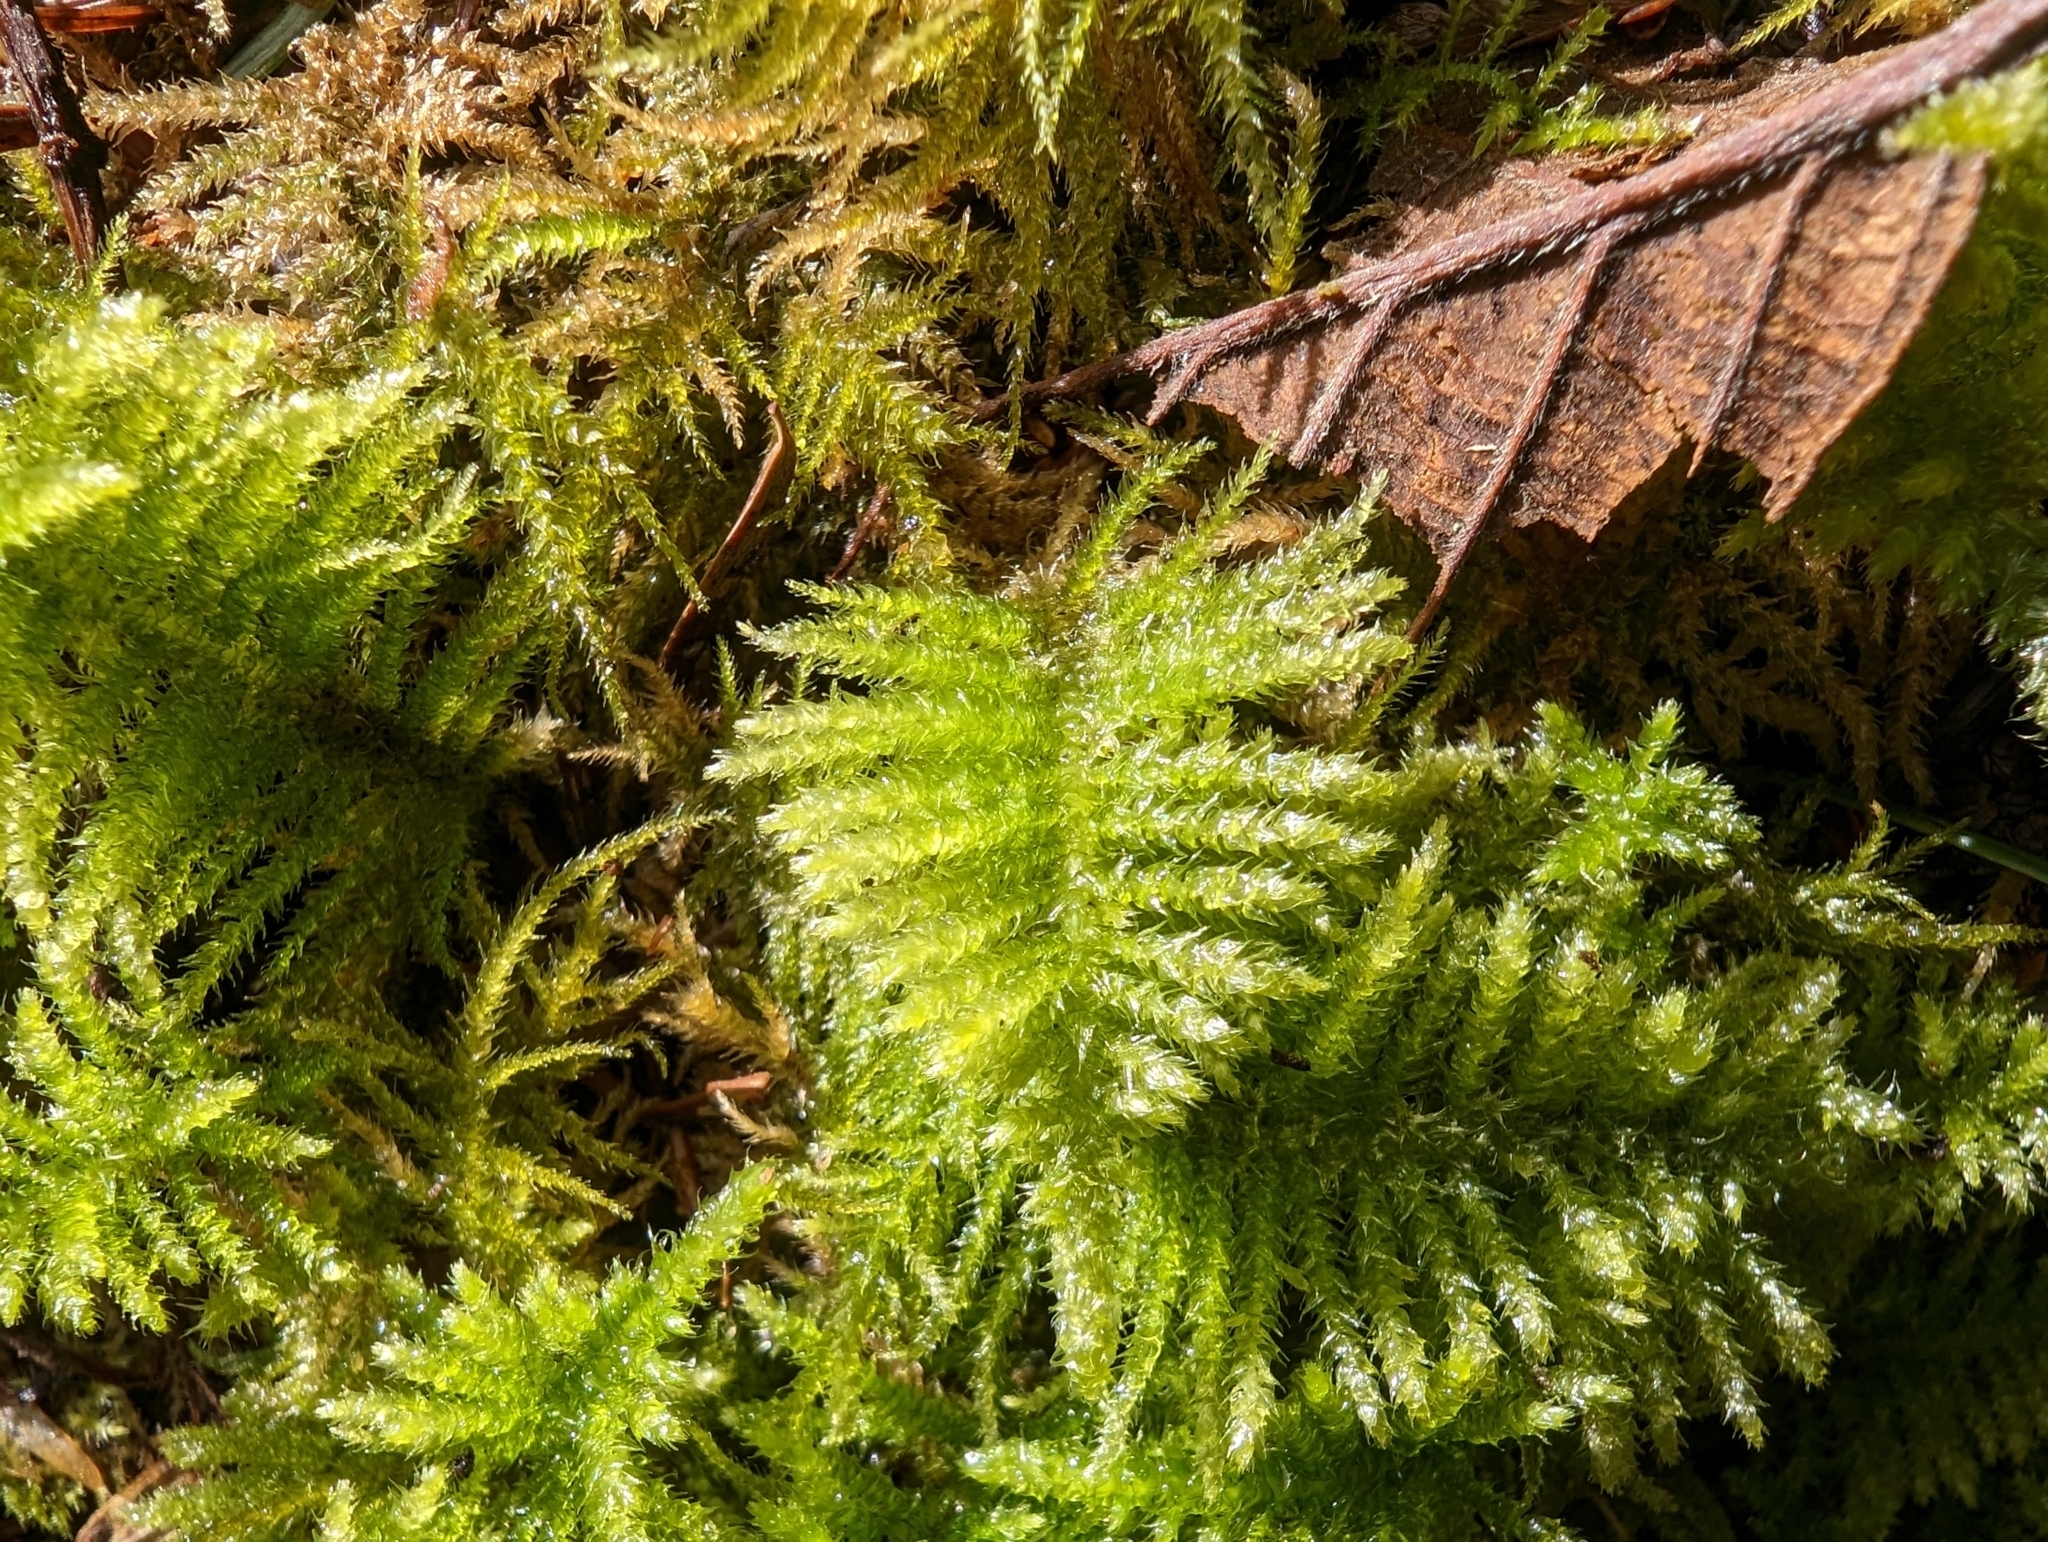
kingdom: Plantae
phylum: Bryophyta
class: Bryopsida
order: Hypnales
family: Brachytheciaceae
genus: Kindbergia
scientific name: Kindbergia oregana
